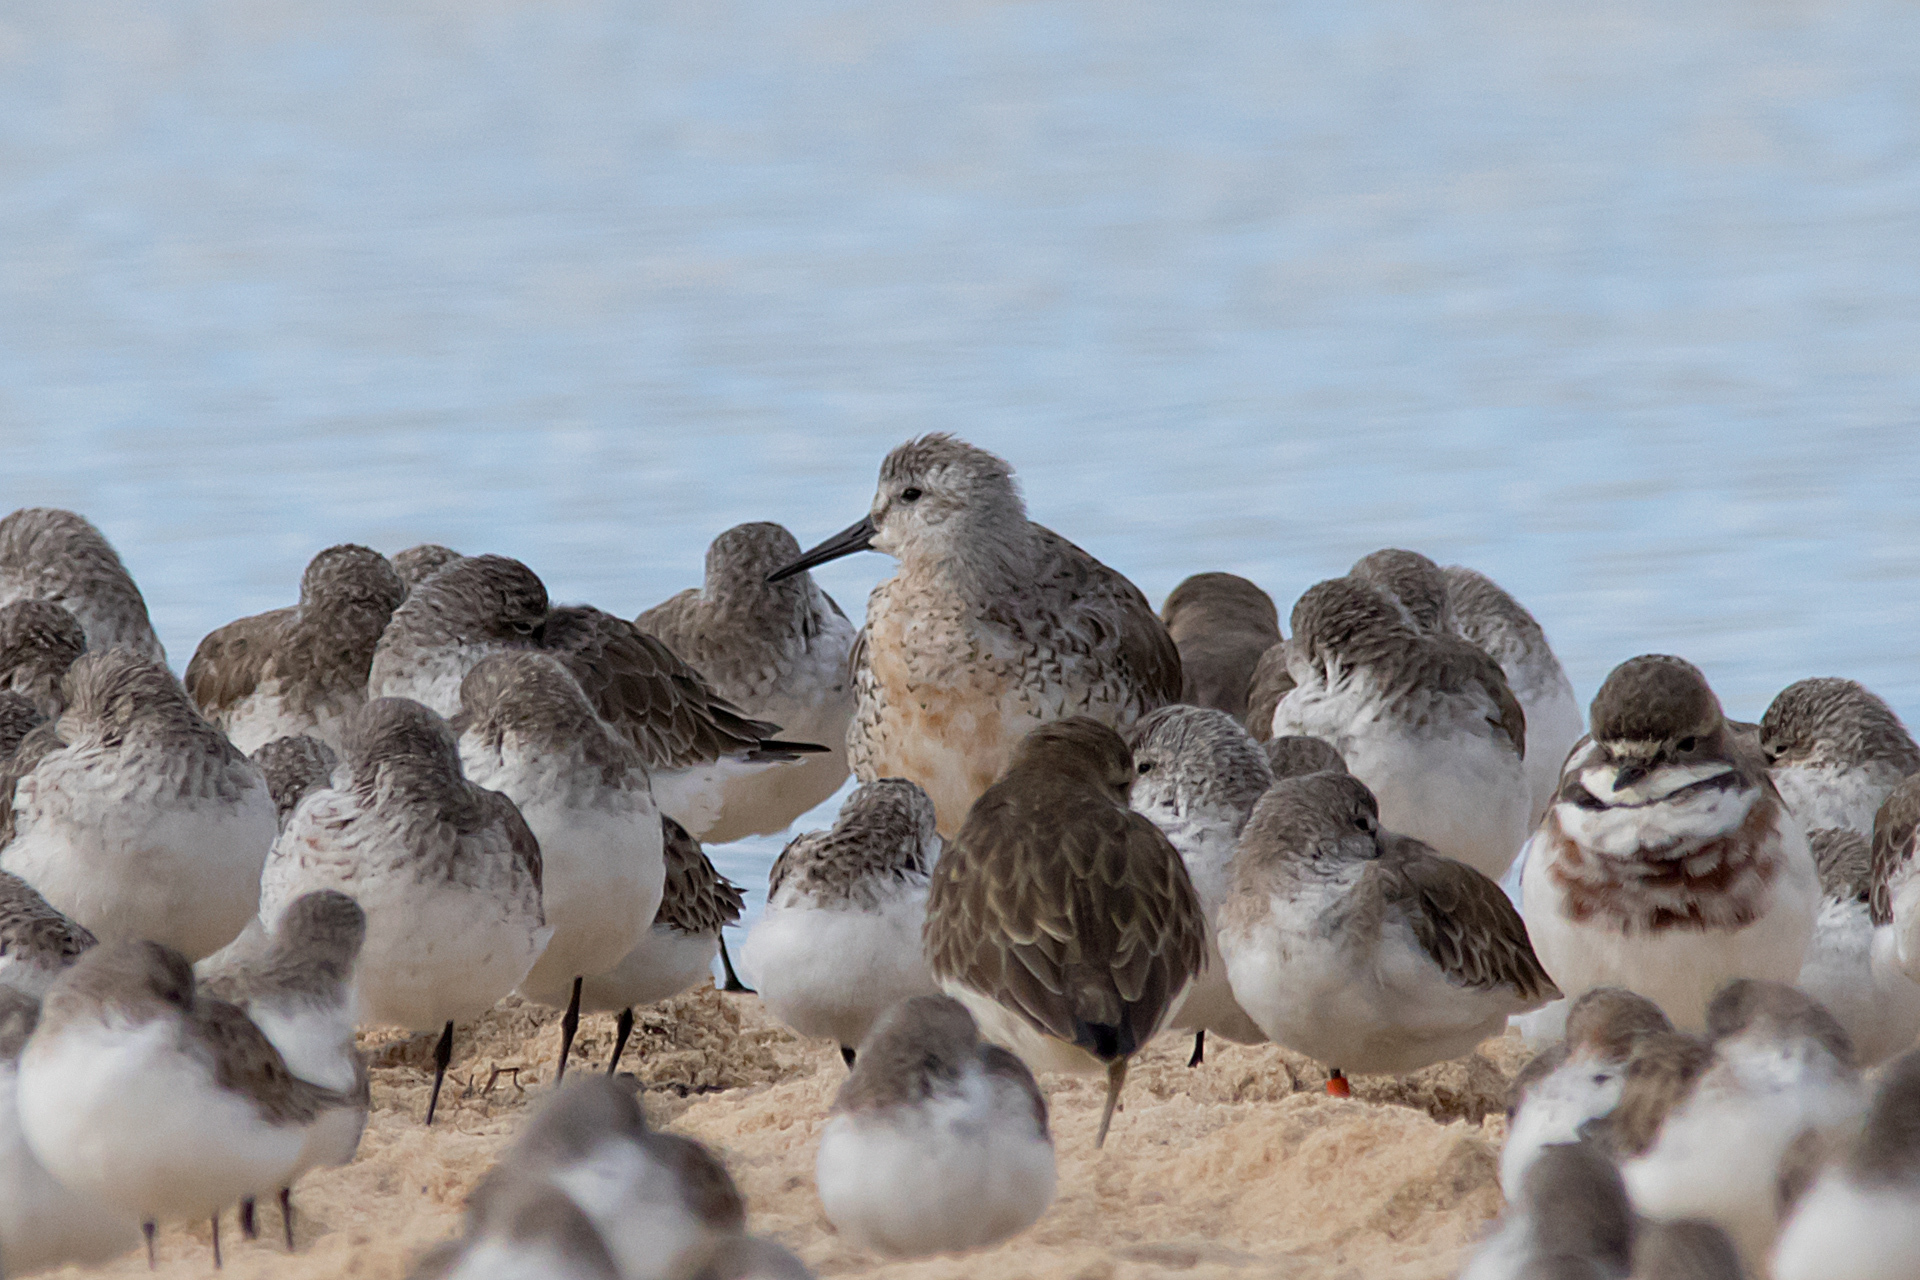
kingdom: Animalia
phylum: Chordata
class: Aves
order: Charadriiformes
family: Scolopacidae
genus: Calidris
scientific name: Calidris canutus
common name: Red knot
